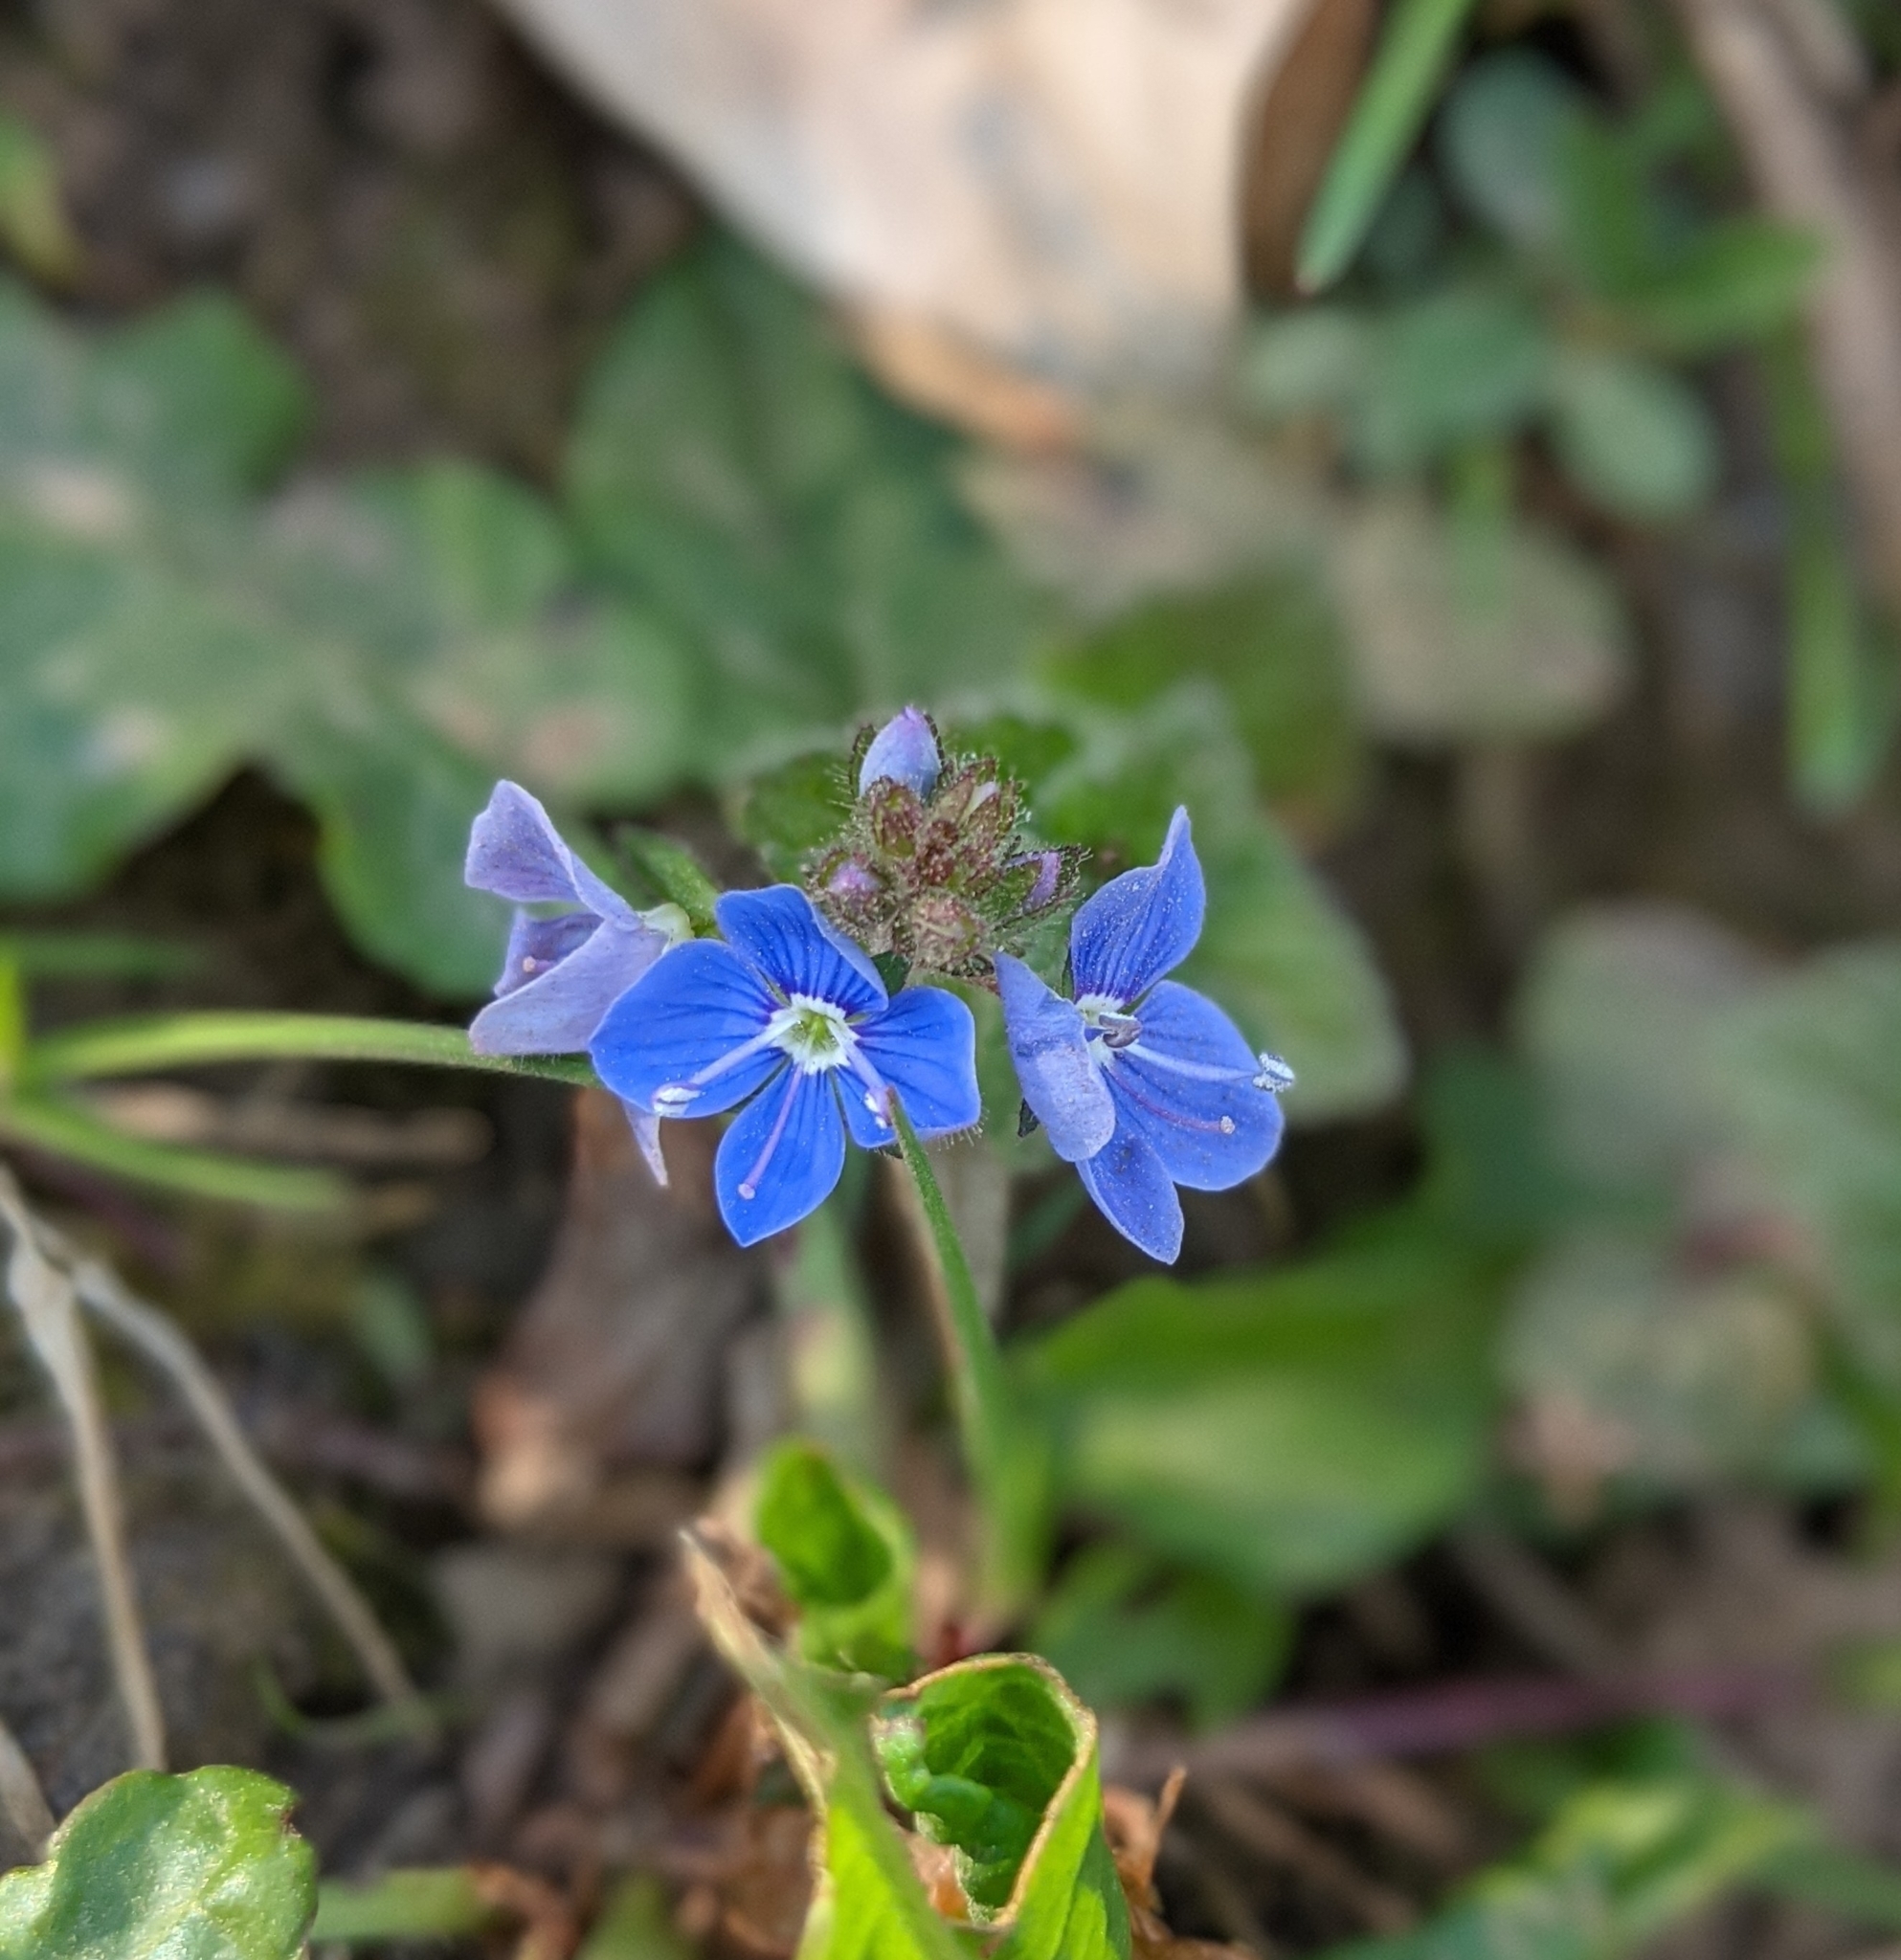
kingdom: Plantae
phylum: Tracheophyta
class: Magnoliopsida
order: Lamiales
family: Plantaginaceae
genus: Veronica
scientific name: Veronica chamaedrys
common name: Germander speedwell
